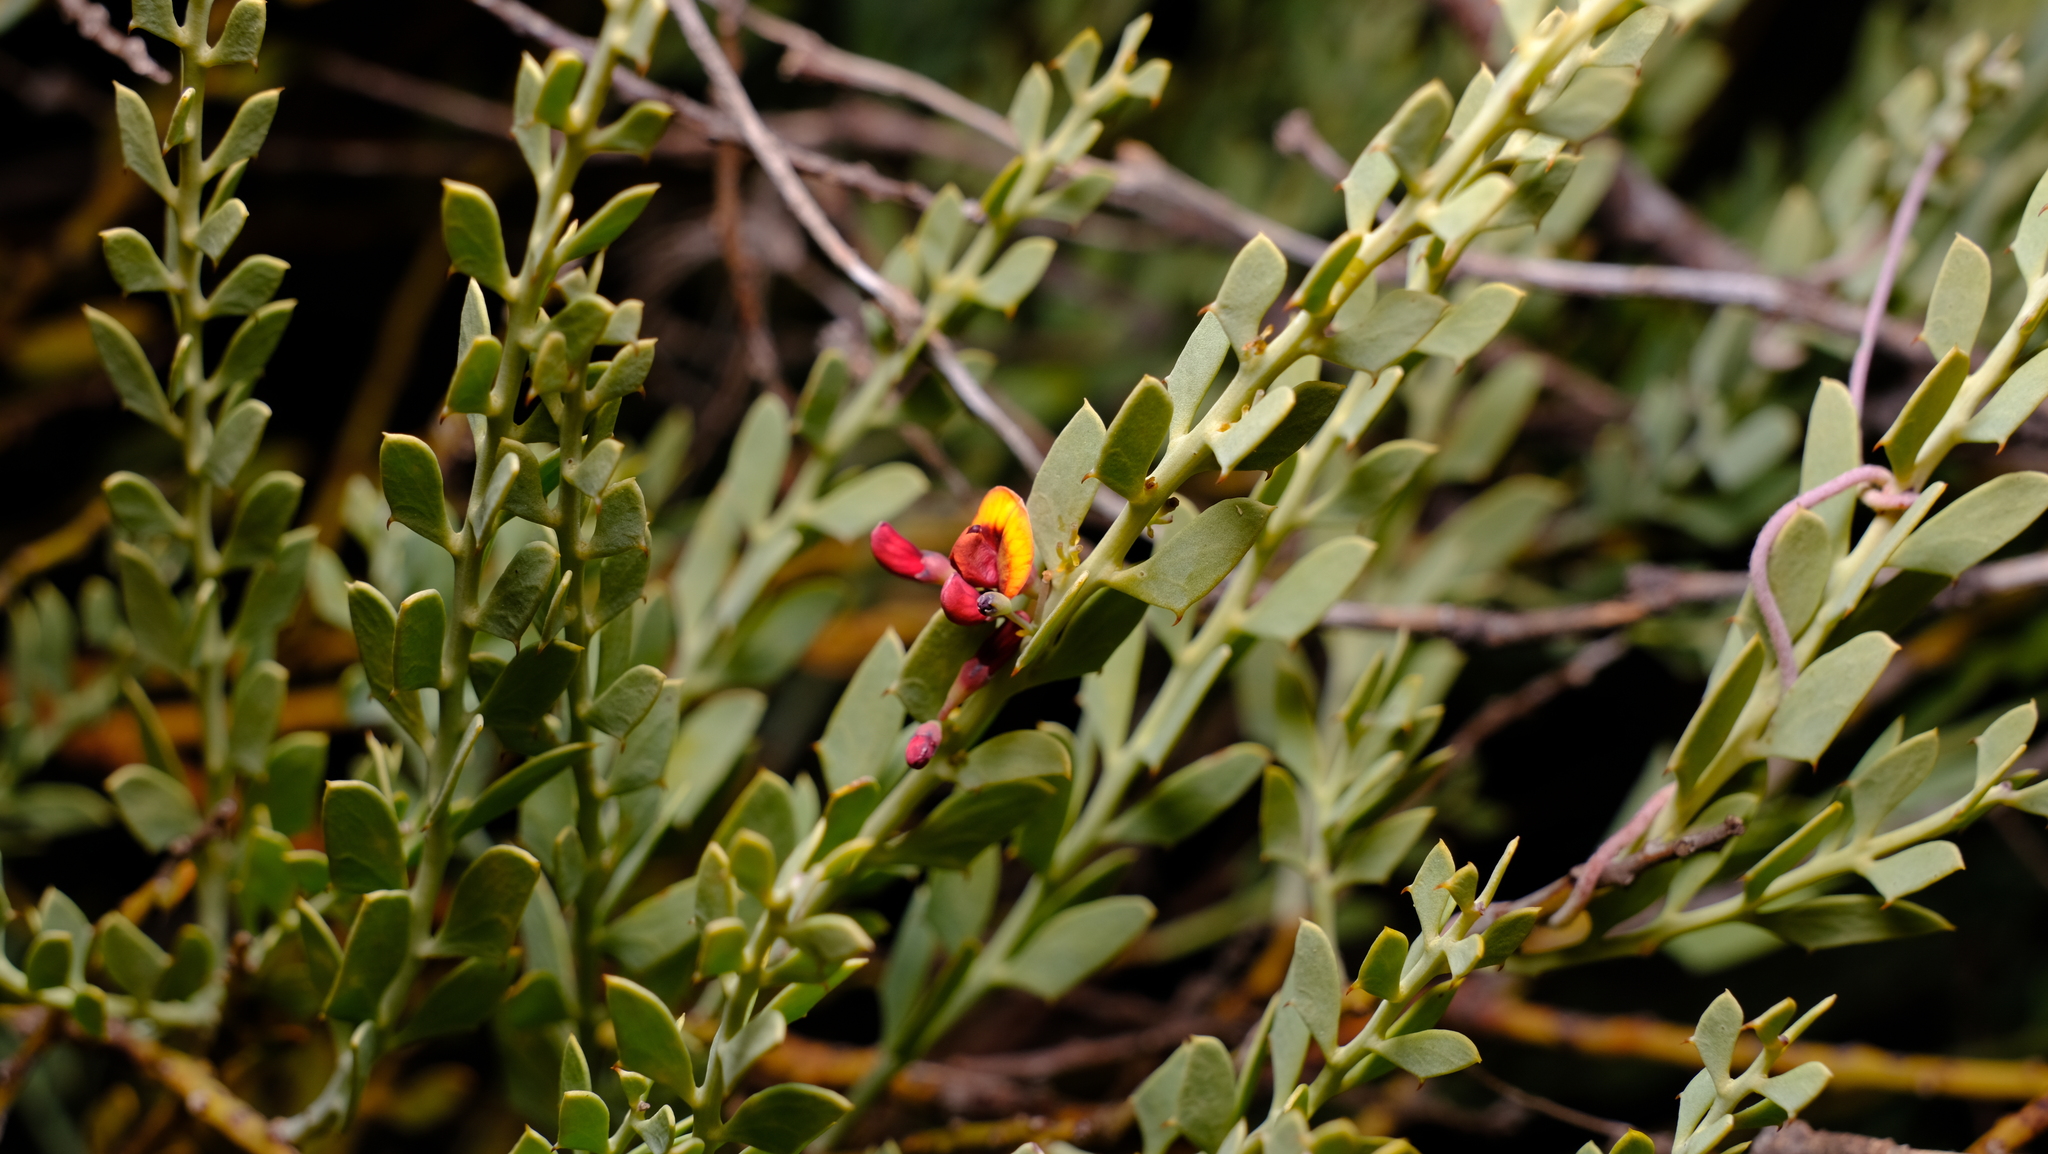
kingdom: Plantae
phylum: Tracheophyta
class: Magnoliopsida
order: Fabales
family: Fabaceae
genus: Daviesia
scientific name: Daviesia podophylla
